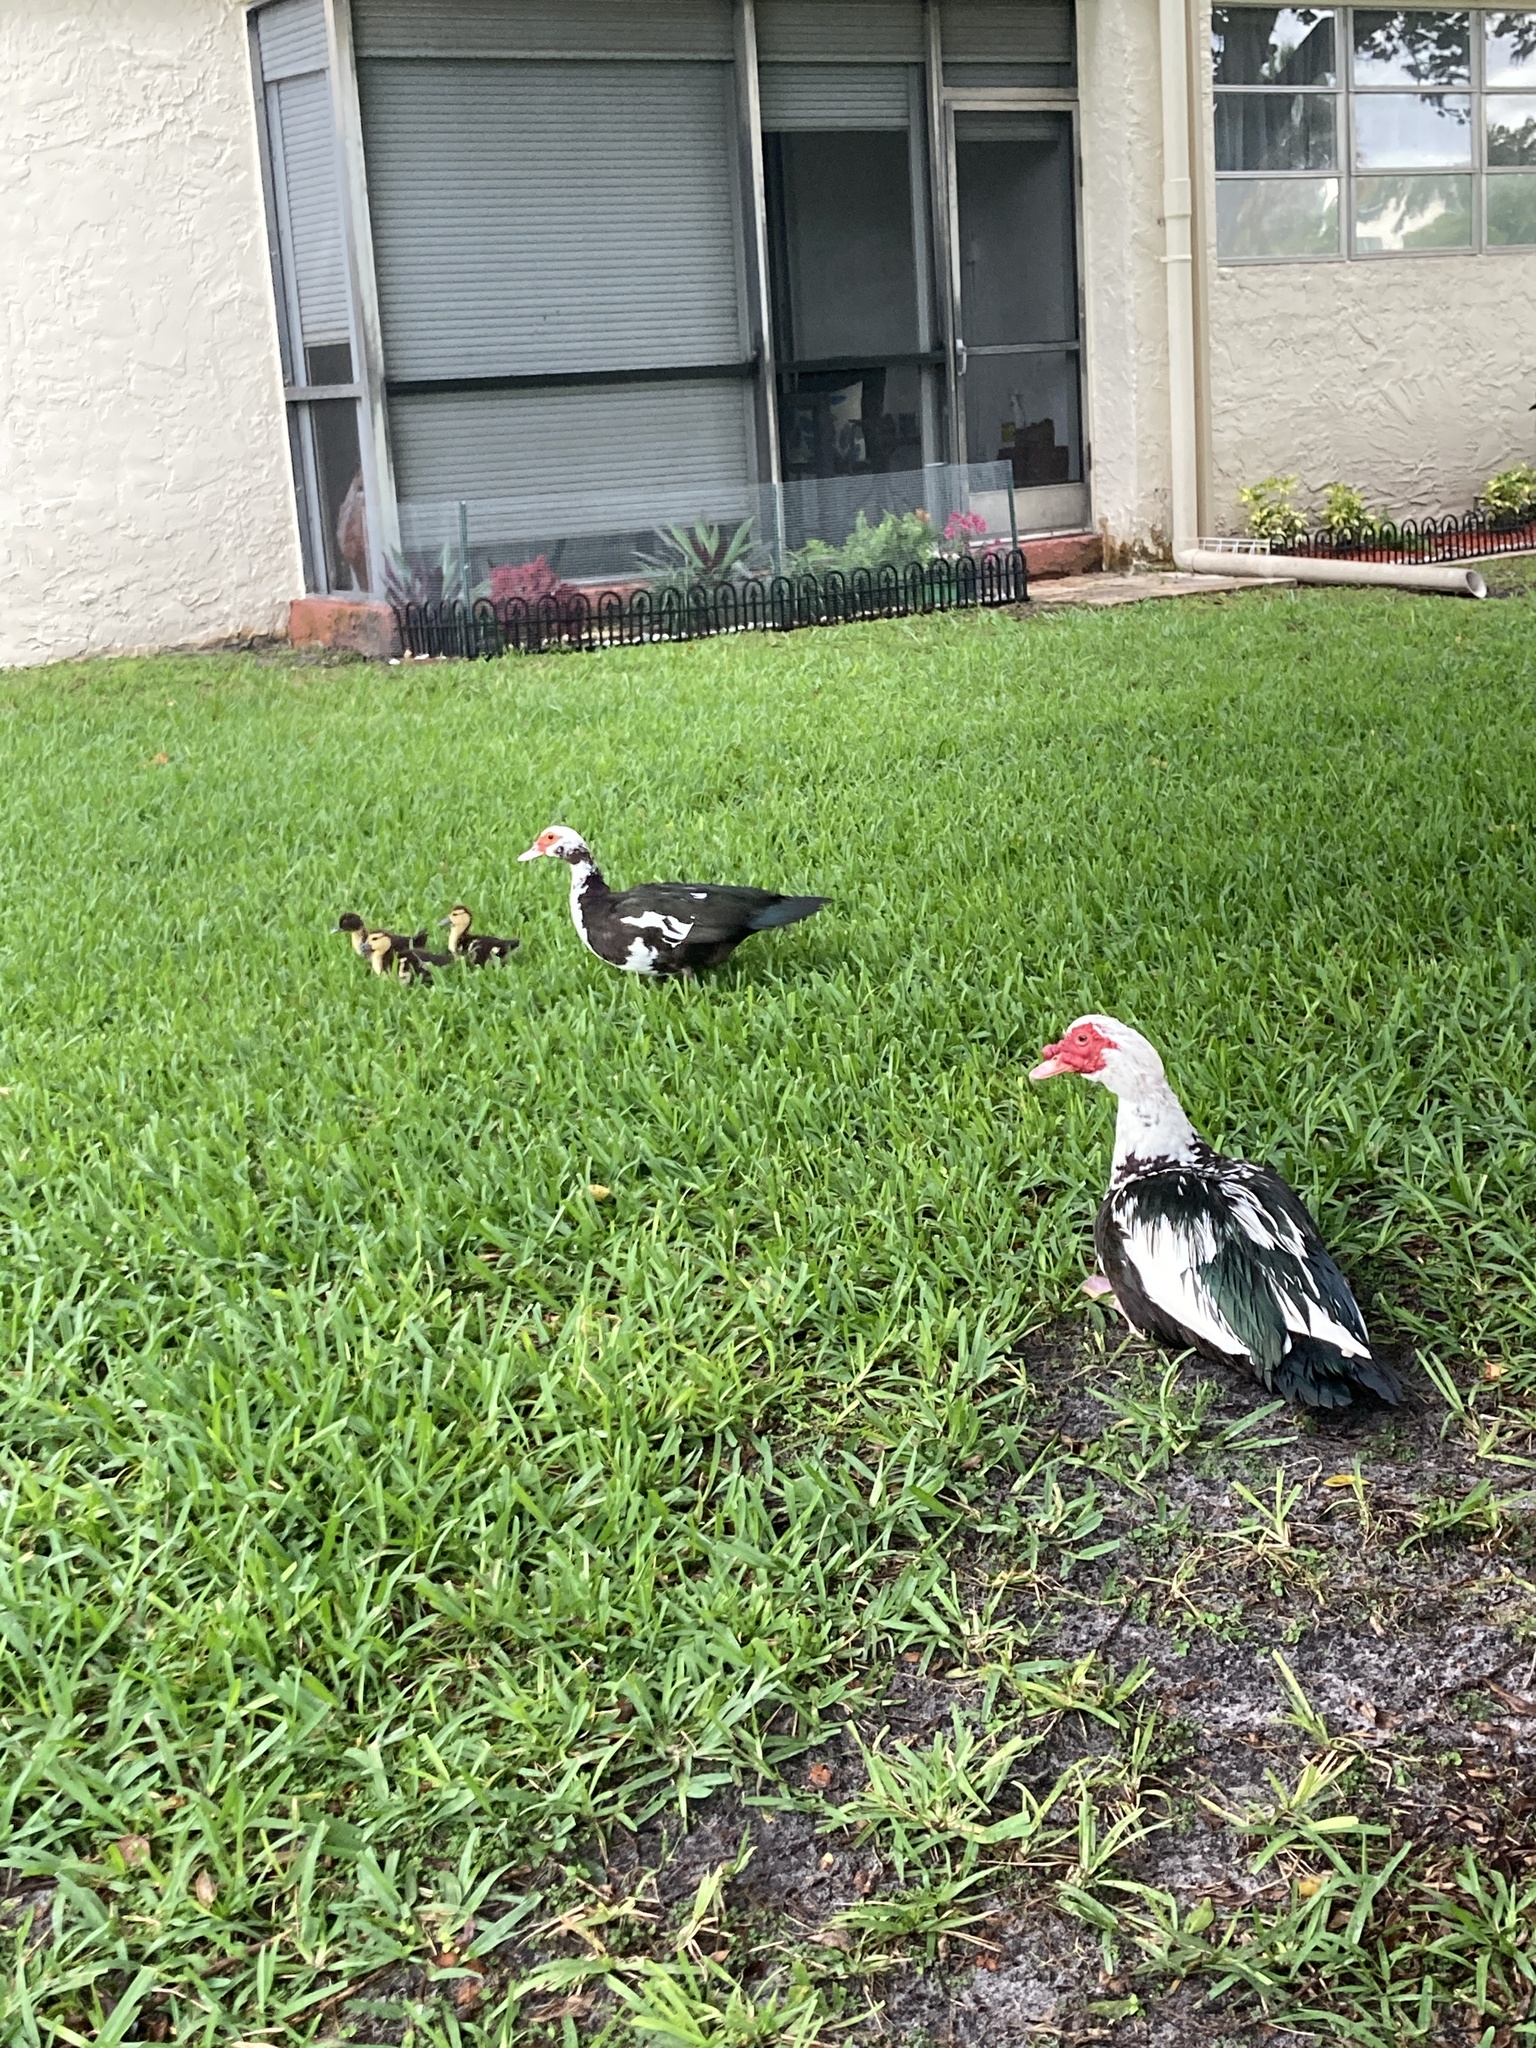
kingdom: Animalia
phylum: Chordata
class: Aves
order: Anseriformes
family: Anatidae
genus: Cairina
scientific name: Cairina moschata
